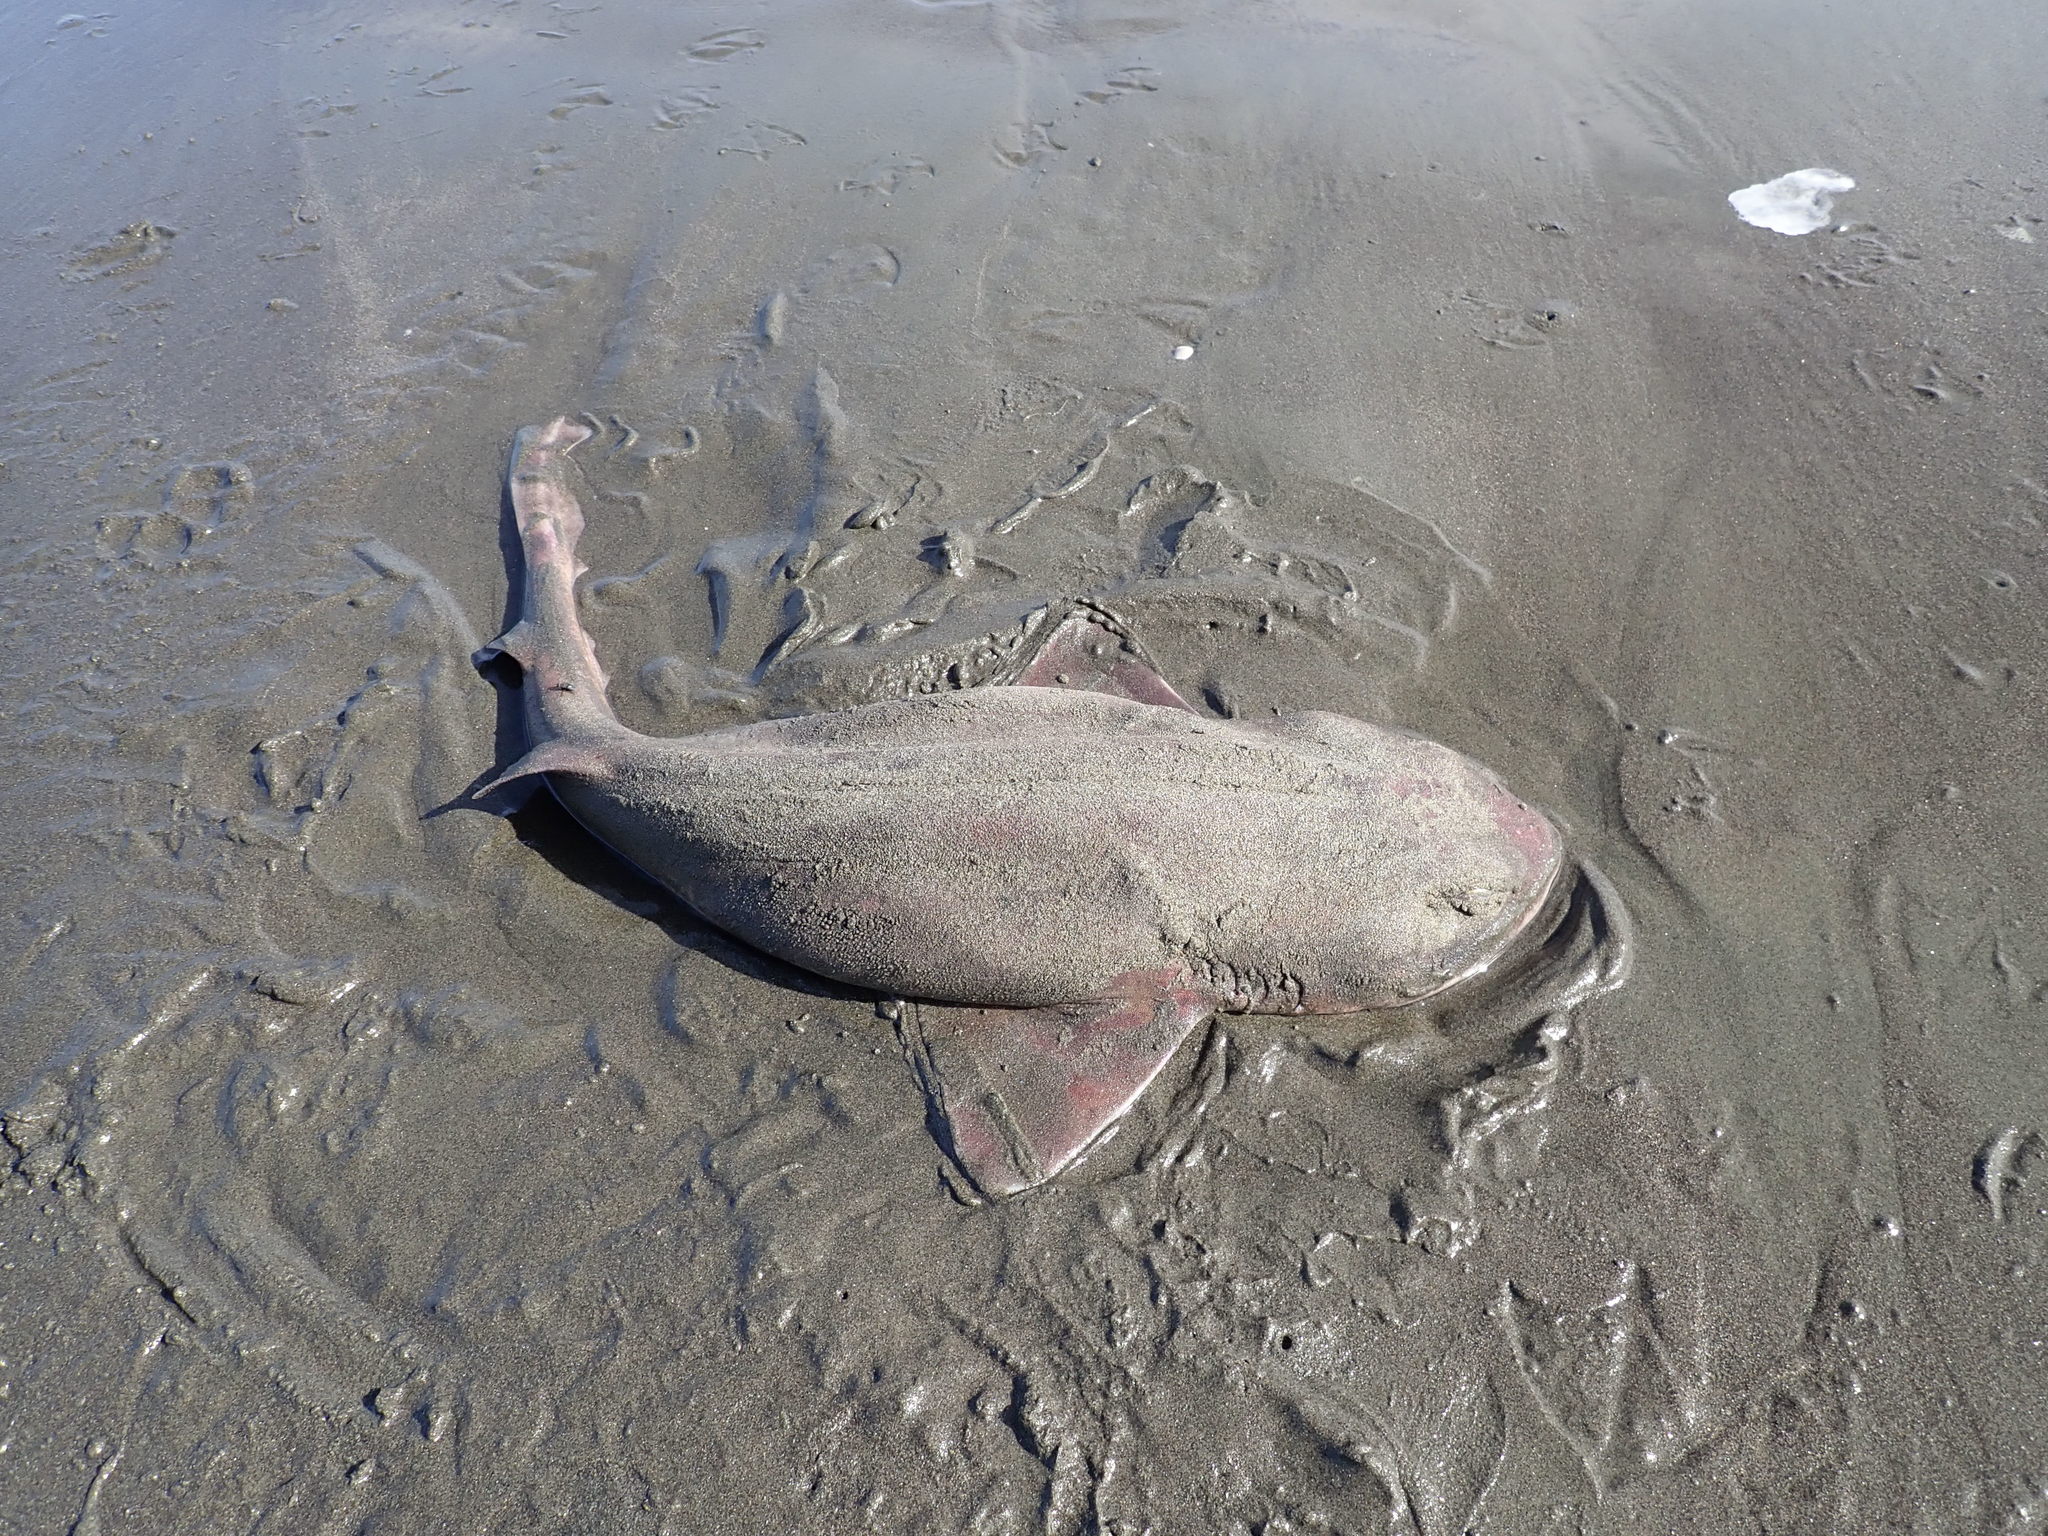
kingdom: Animalia
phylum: Chordata
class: Elasmobranchii
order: Carcharhiniformes
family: Scyliorhinidae
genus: Cephaloscyllium
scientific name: Cephaloscyllium isabellum
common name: Carpet shark
